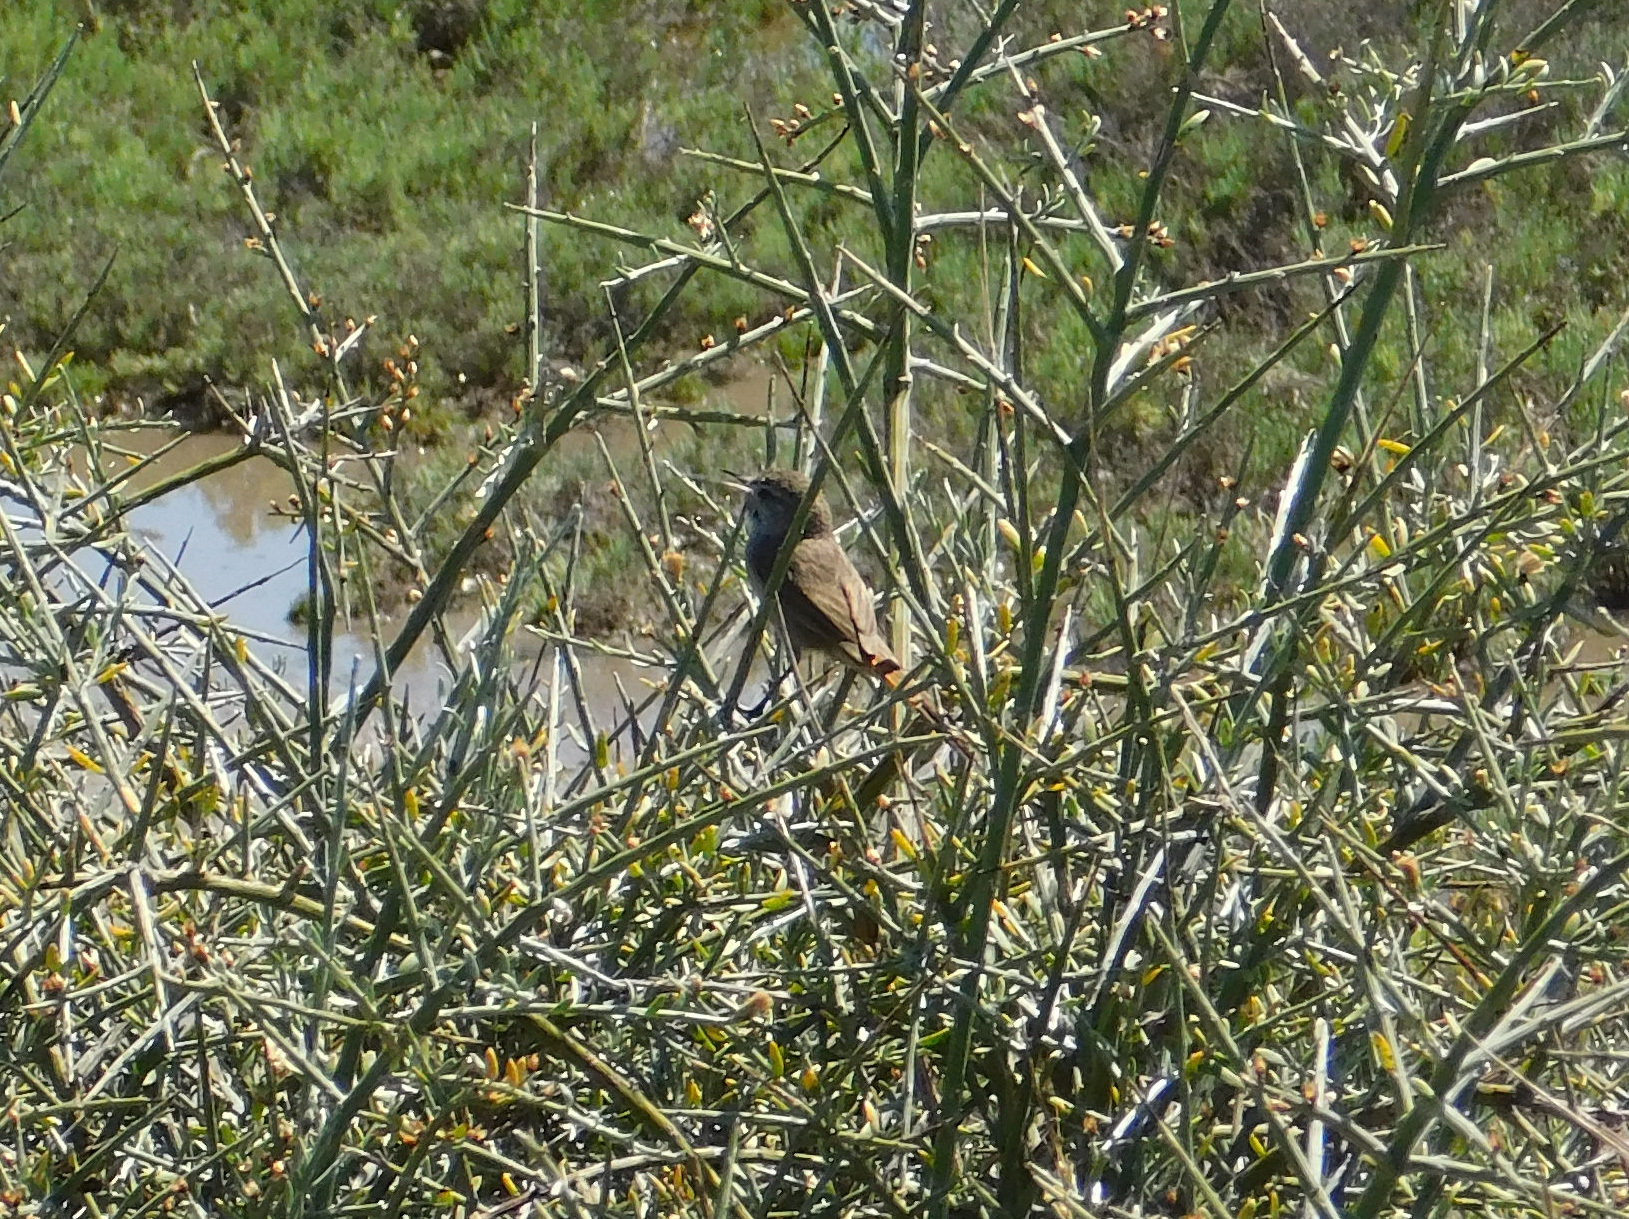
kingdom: Animalia
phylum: Chordata
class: Aves
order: Passeriformes
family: Furnariidae
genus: Asthenes
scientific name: Asthenes pyrrholeuca
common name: Sharp-billed canastero
